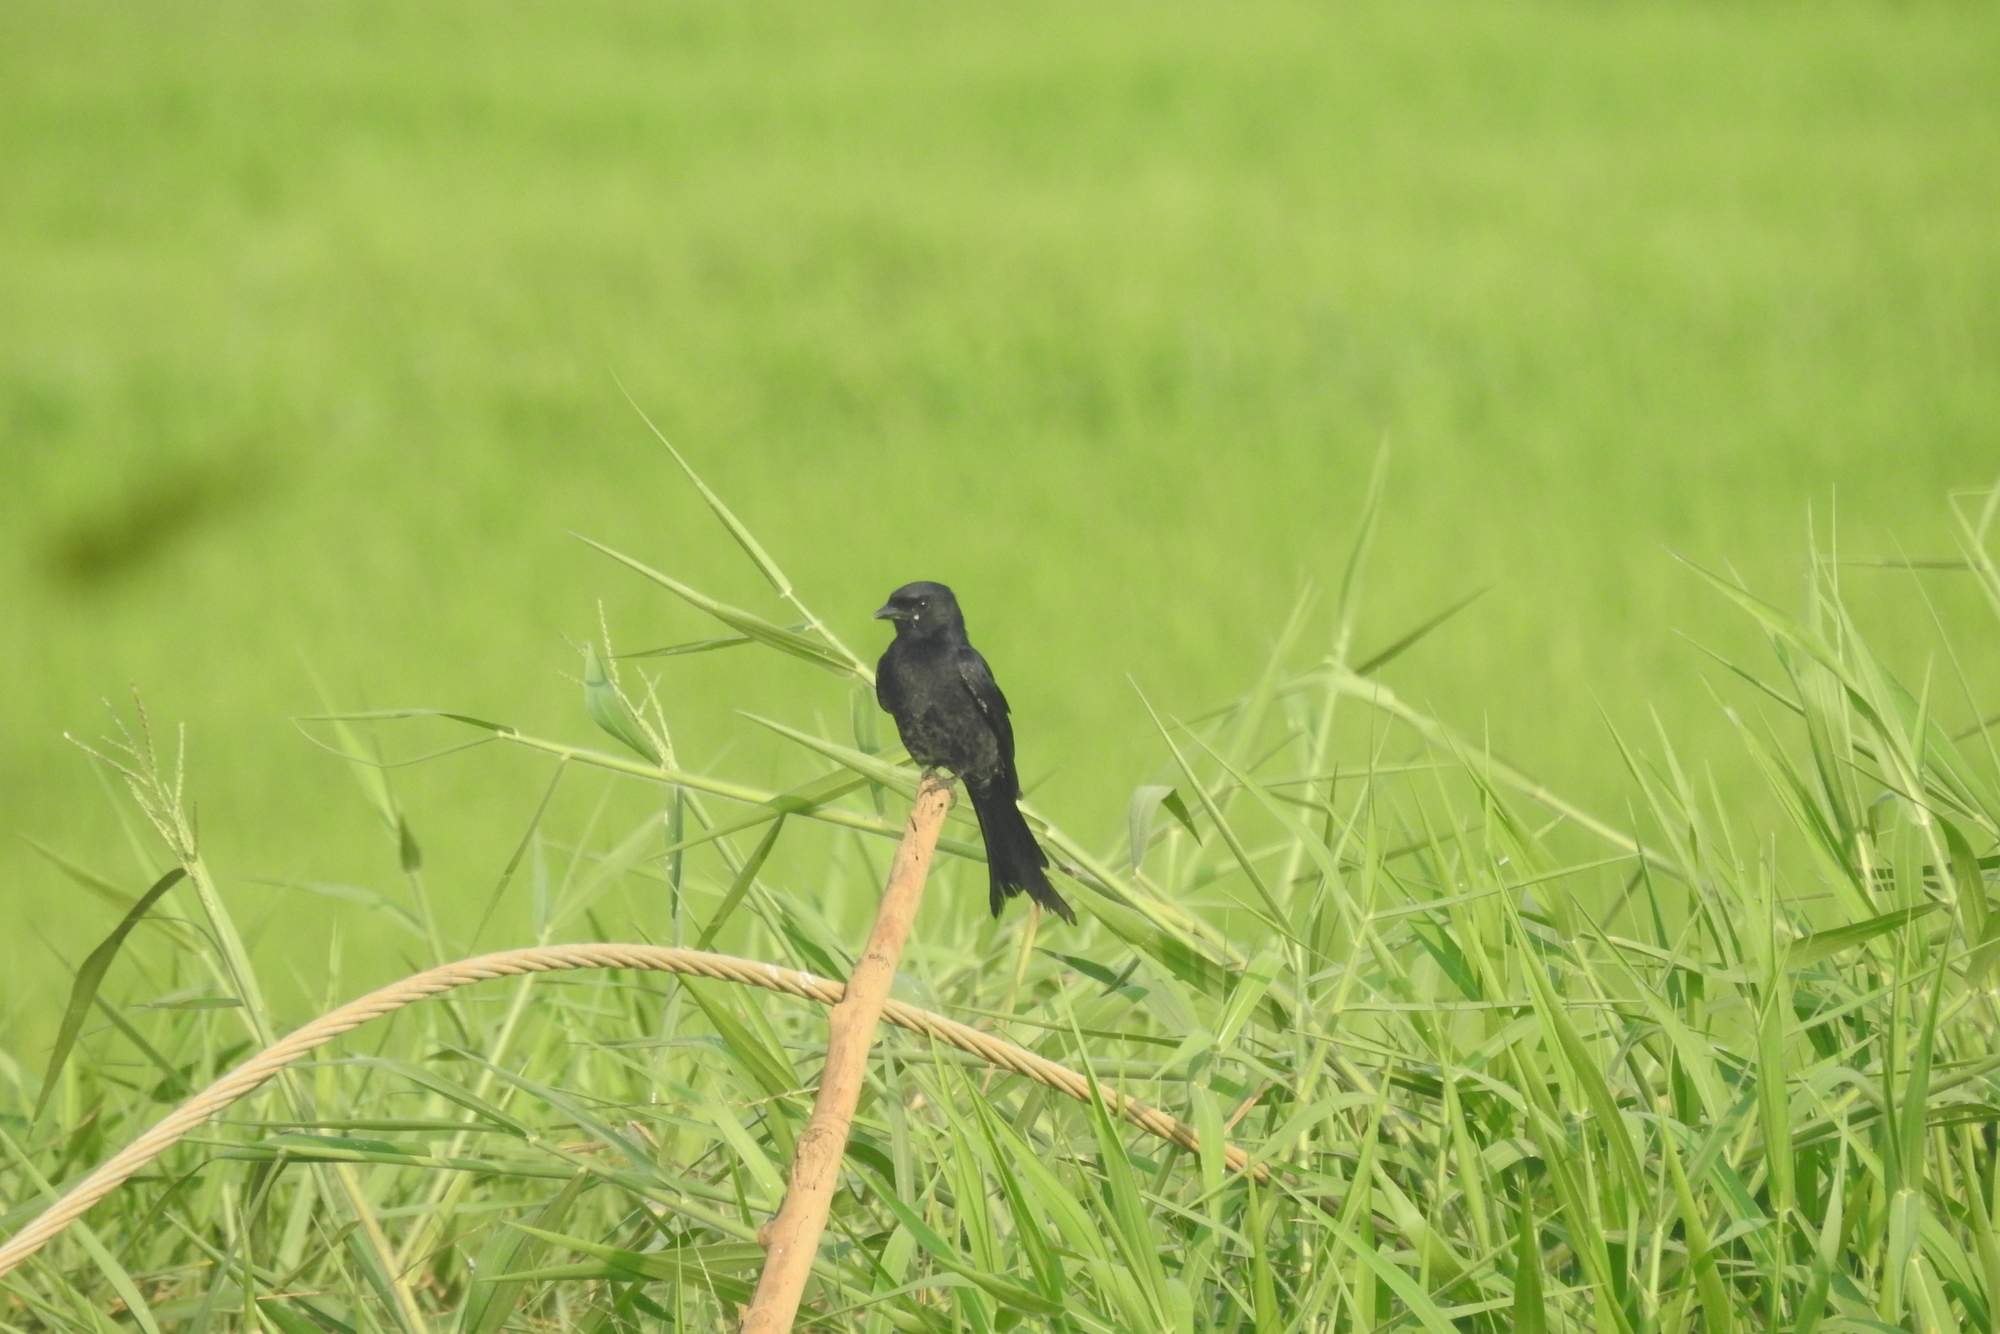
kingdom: Animalia
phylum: Chordata
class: Aves
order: Passeriformes
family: Dicruridae
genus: Dicrurus
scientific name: Dicrurus macrocercus
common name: Black drongo
